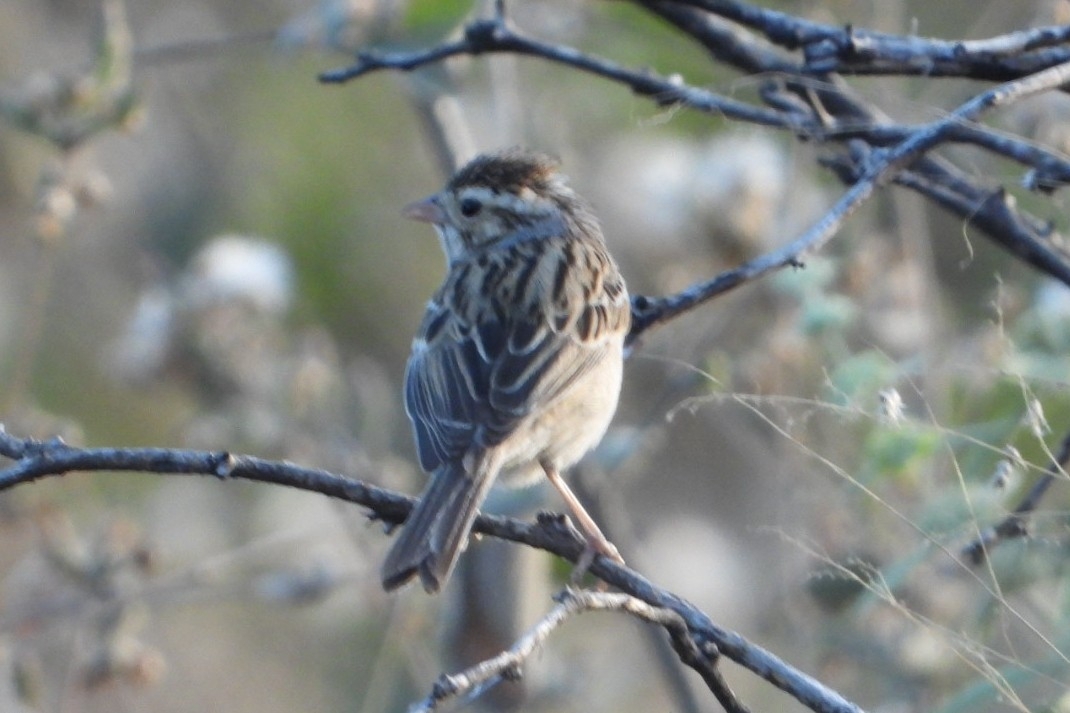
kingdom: Animalia
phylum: Chordata
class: Aves
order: Passeriformes
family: Passerellidae
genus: Spizella
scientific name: Spizella pallida
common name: Clay-colored sparrow
